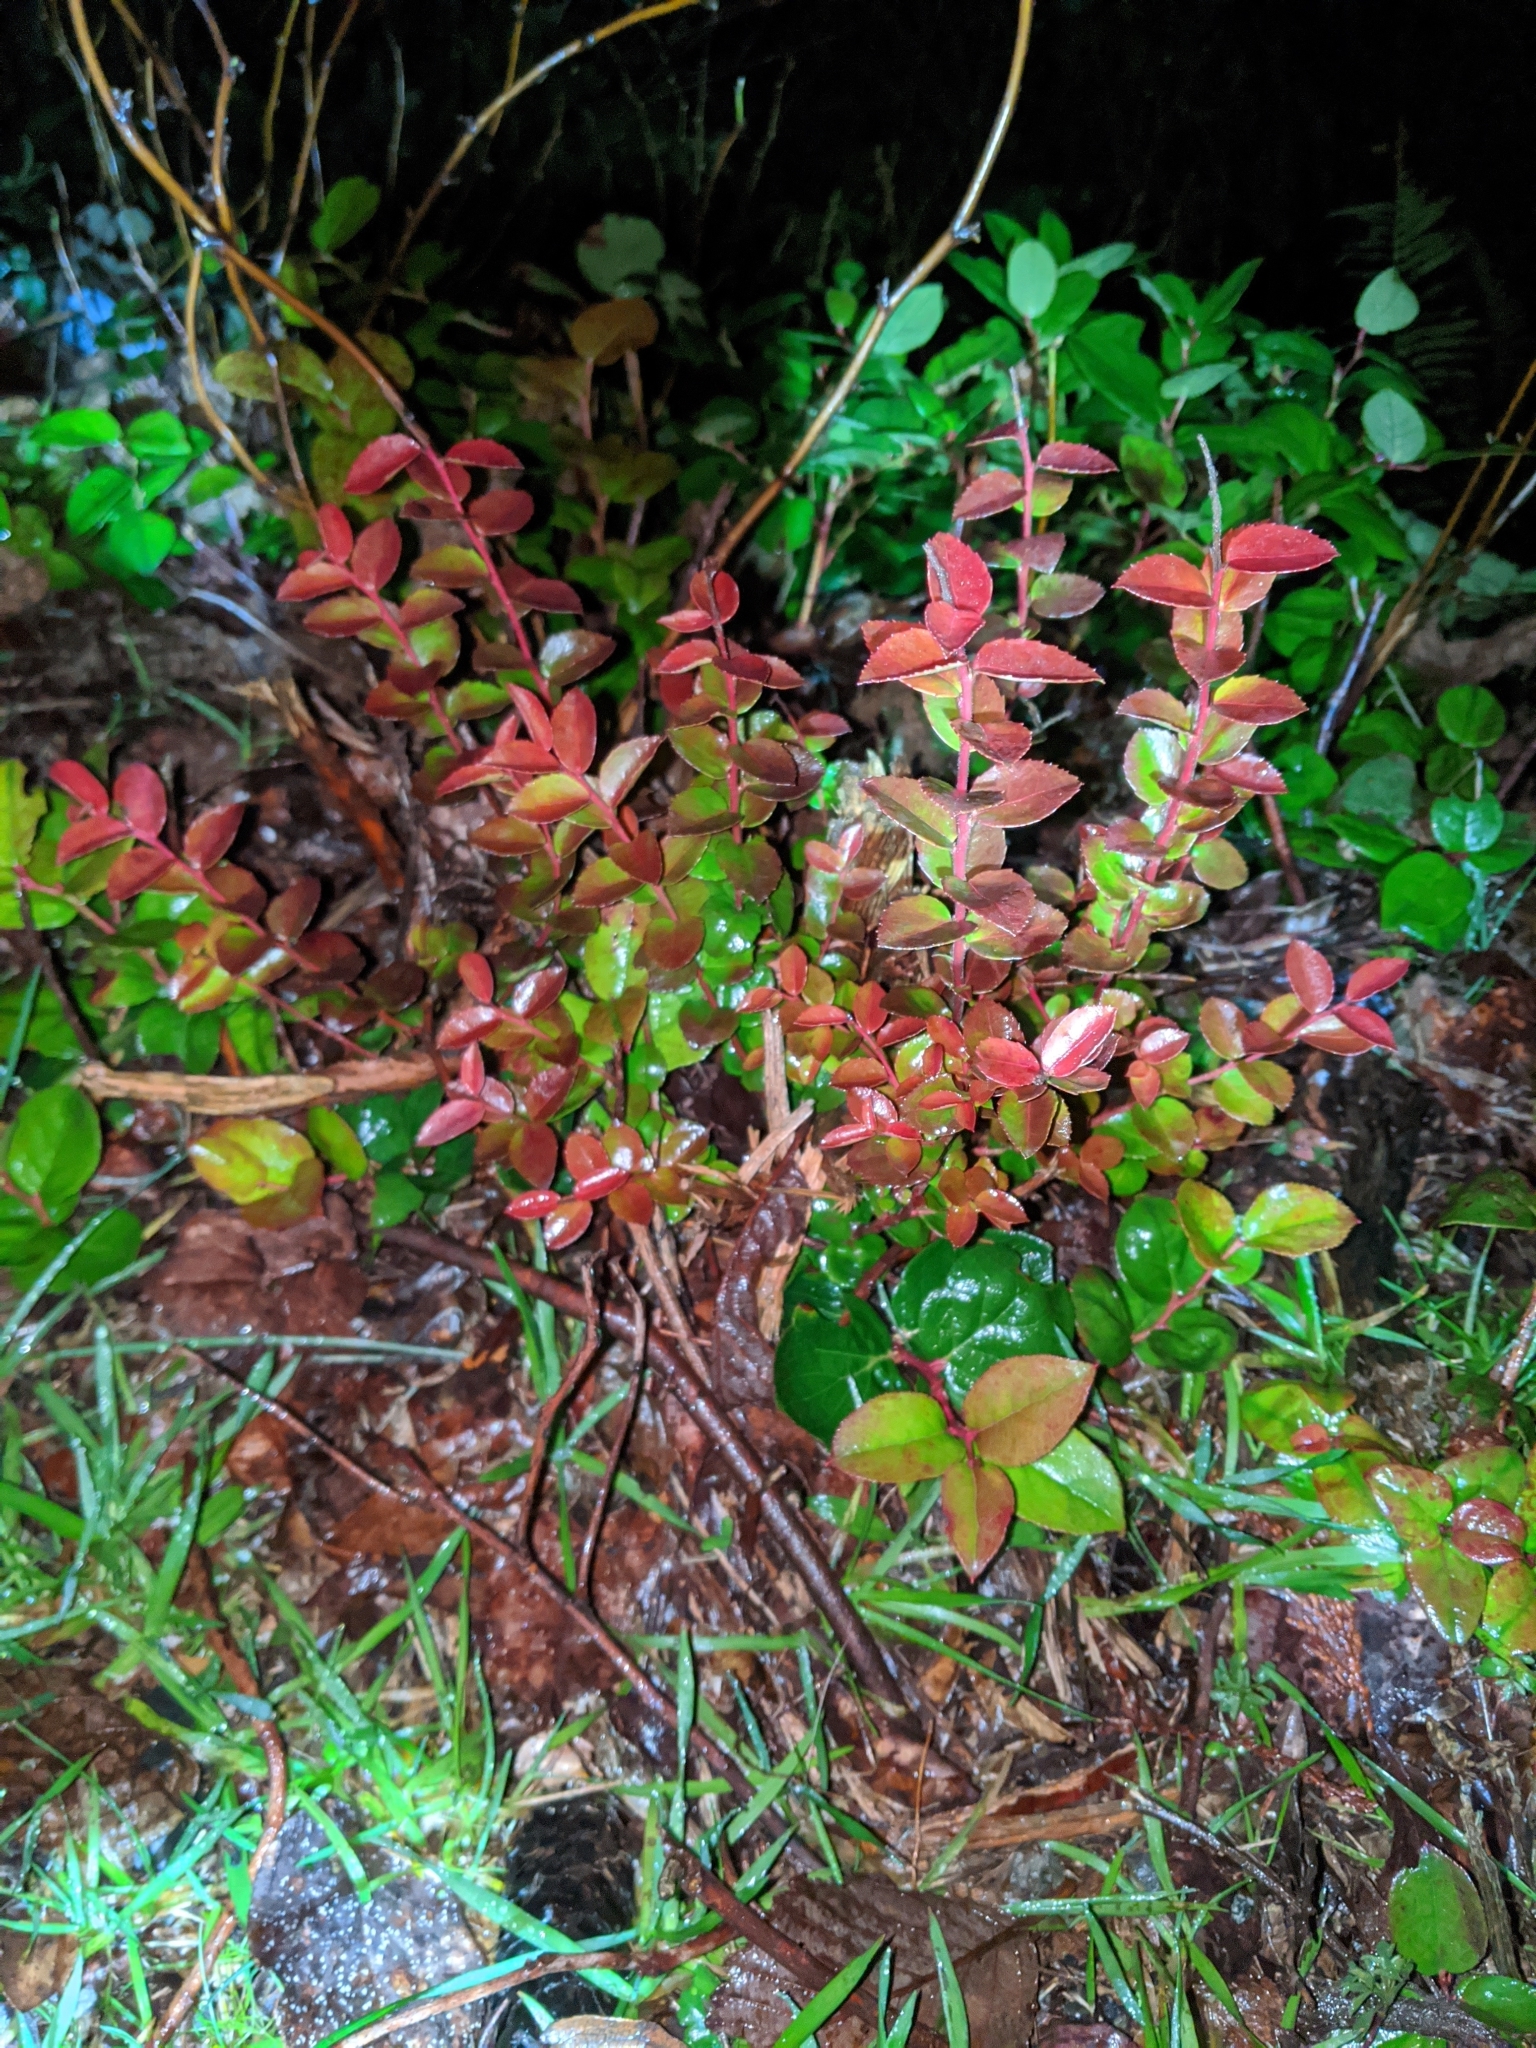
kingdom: Plantae
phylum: Tracheophyta
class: Magnoliopsida
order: Ericales
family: Ericaceae
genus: Vaccinium
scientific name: Vaccinium ovatum
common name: California-huckleberry
